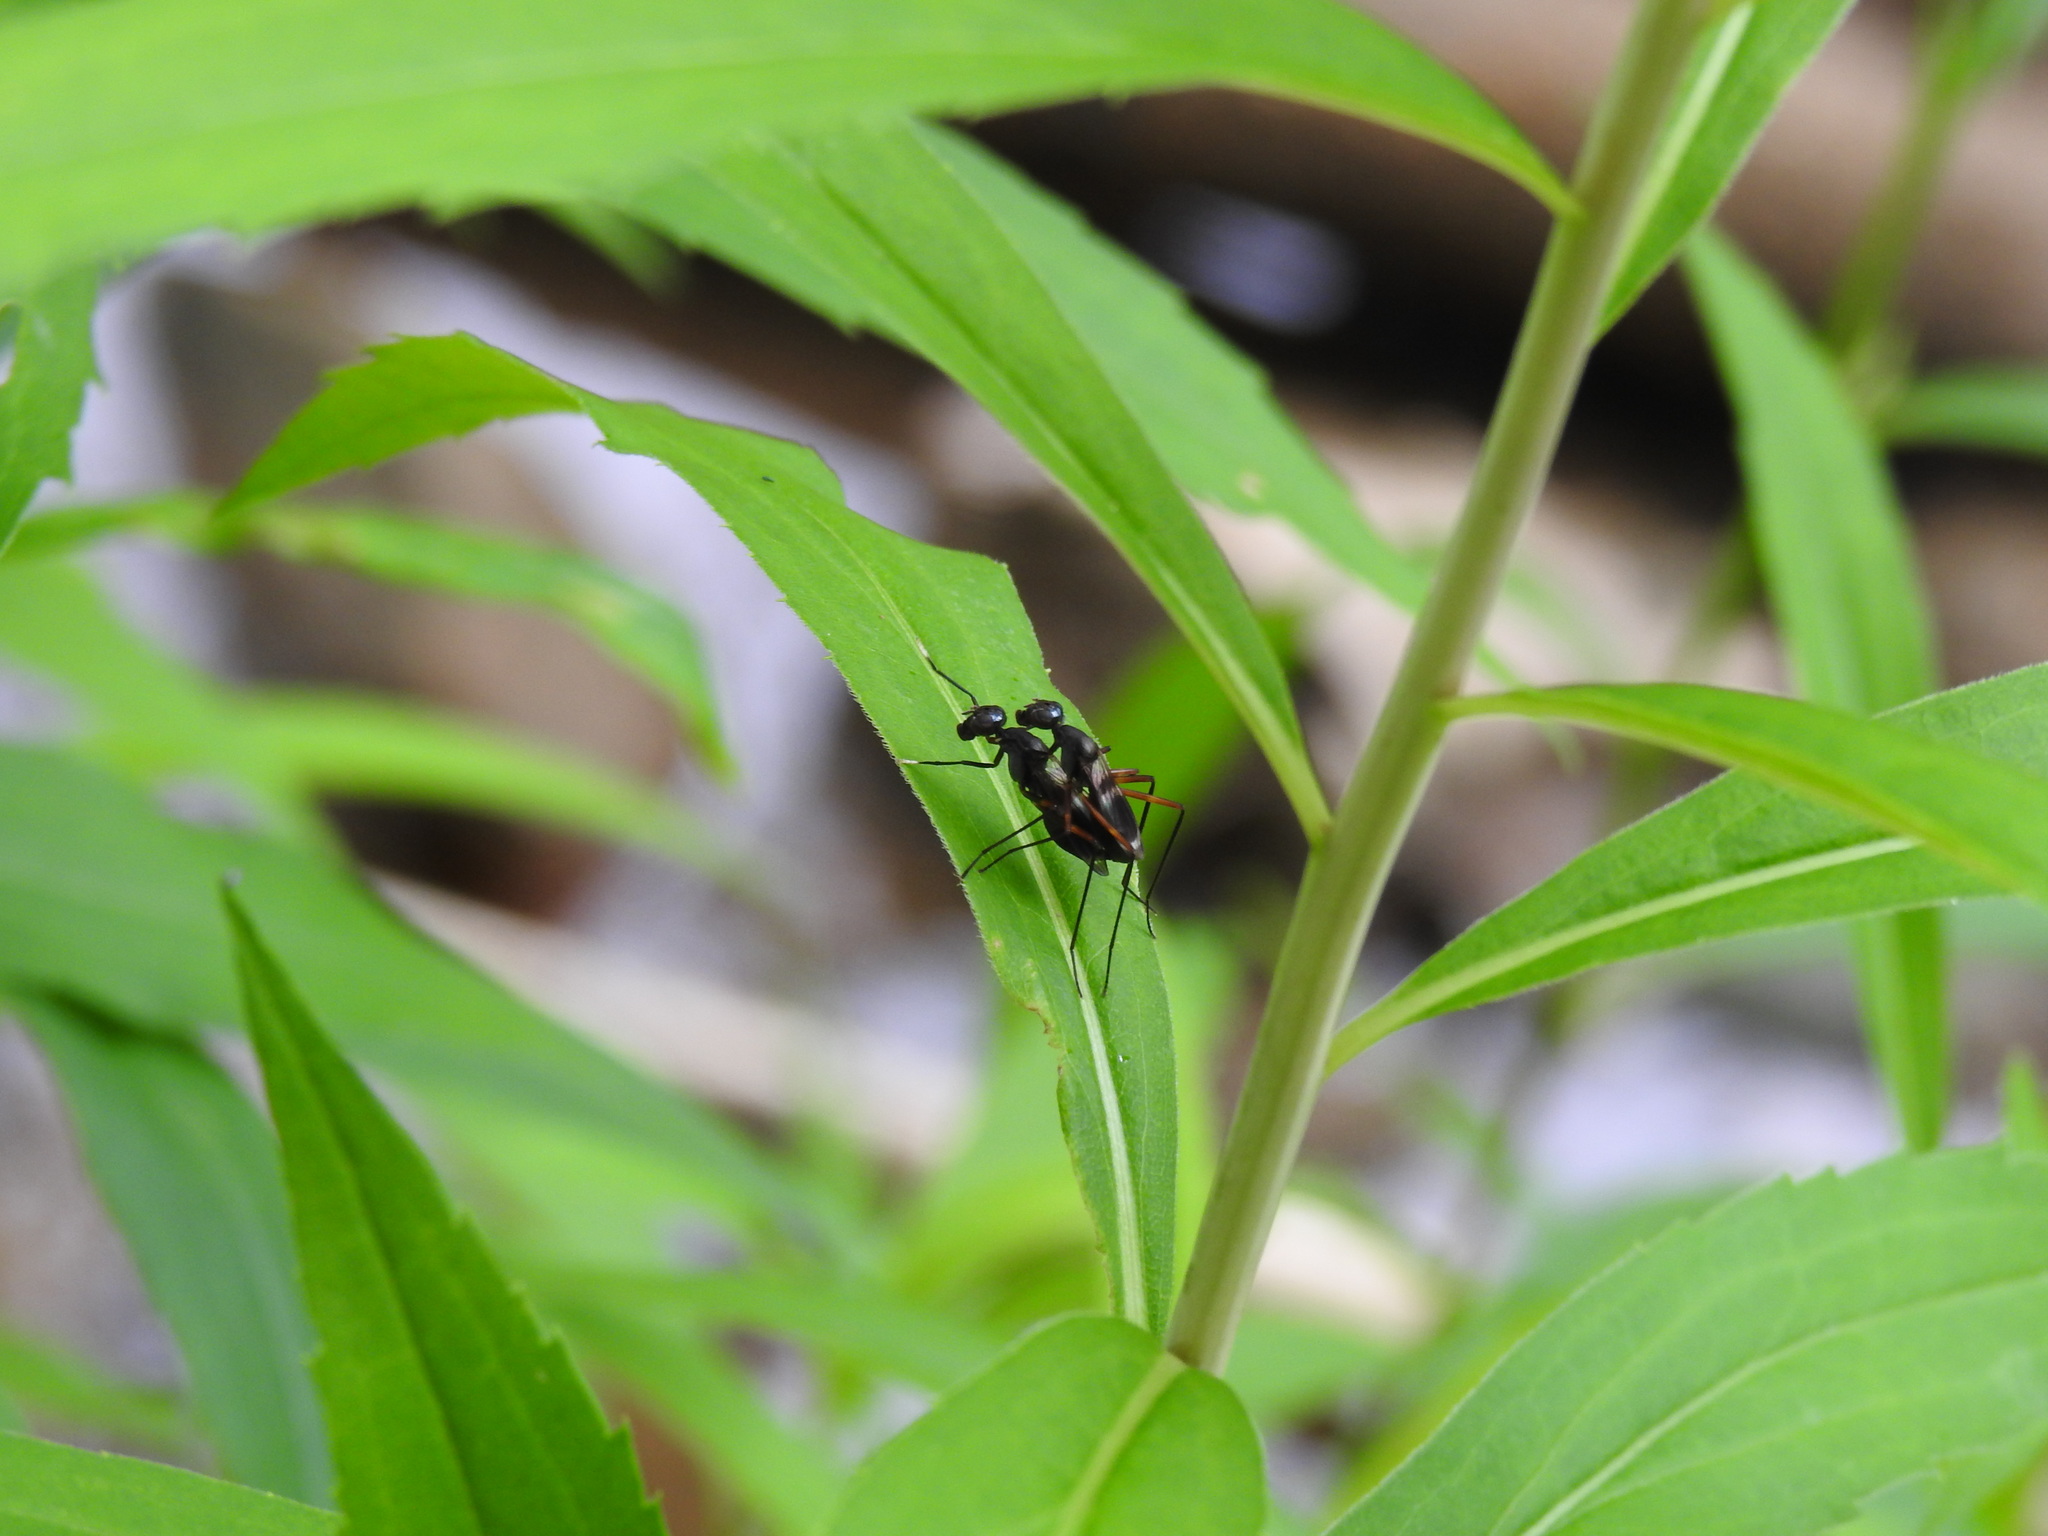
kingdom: Animalia
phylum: Arthropoda
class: Insecta
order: Diptera
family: Micropezidae
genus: Taeniaptera
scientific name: Taeniaptera trivittata
